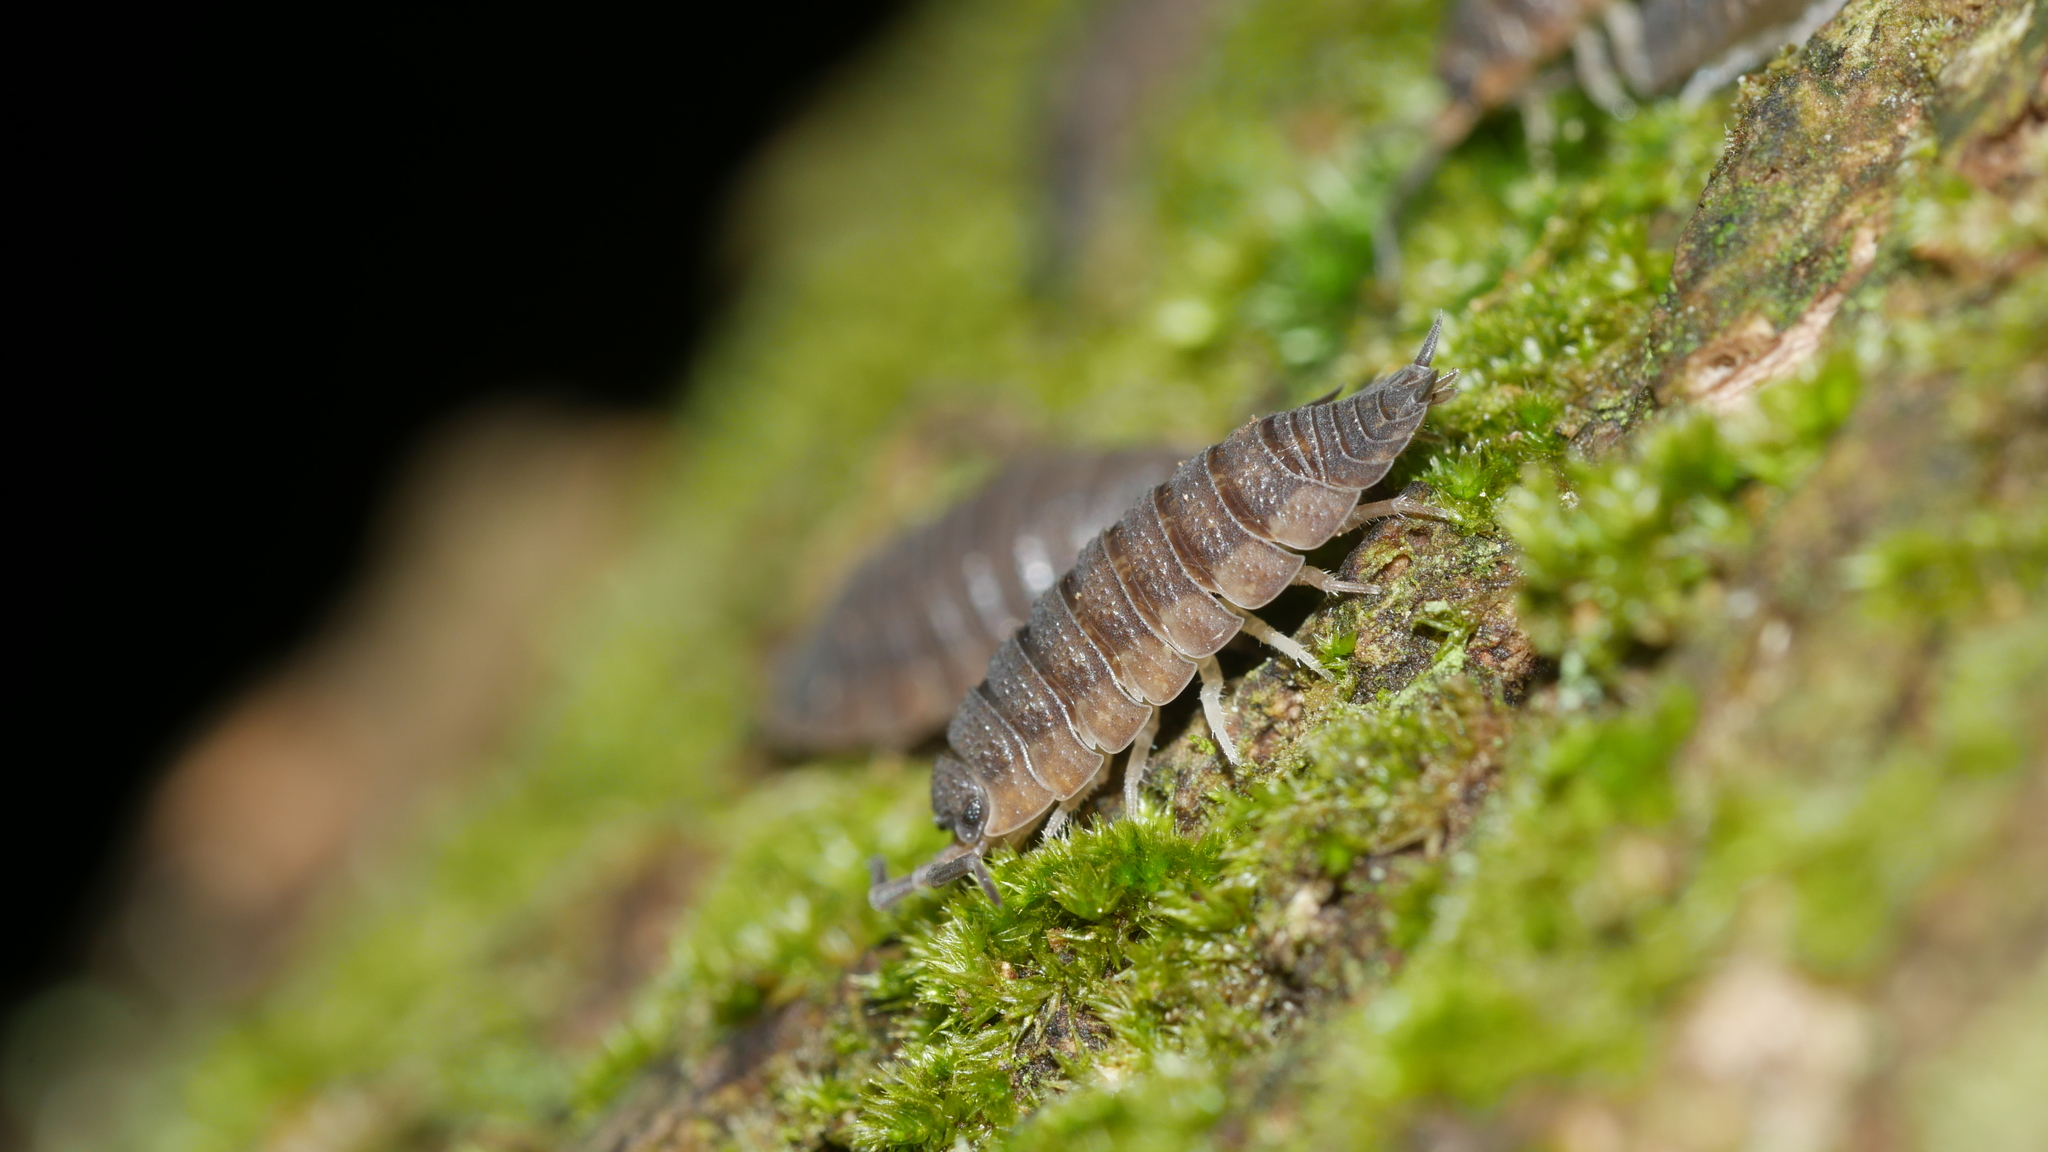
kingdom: Animalia
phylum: Arthropoda
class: Malacostraca
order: Isopoda
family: Porcellionidae
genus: Porcellio
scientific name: Porcellio scaber
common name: Common rough woodlouse
